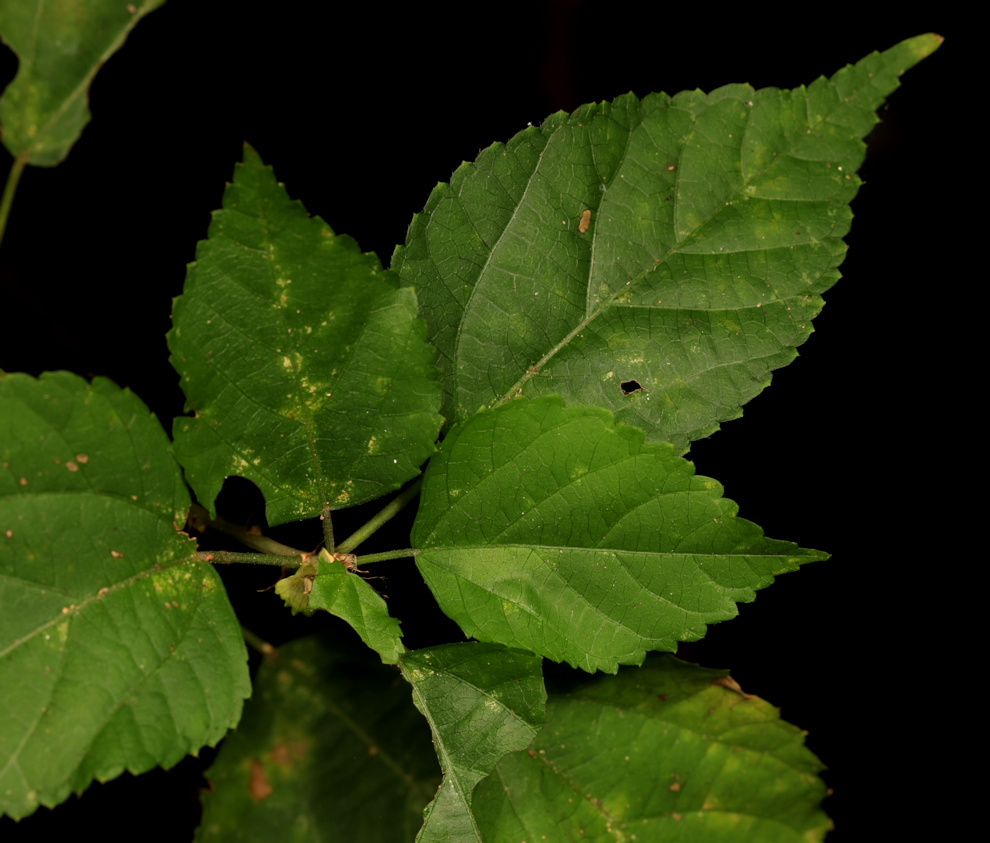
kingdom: Plantae
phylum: Tracheophyta
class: Magnoliopsida
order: Malpighiales
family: Euphorbiaceae
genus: Acalypha
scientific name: Acalypha glabrata
